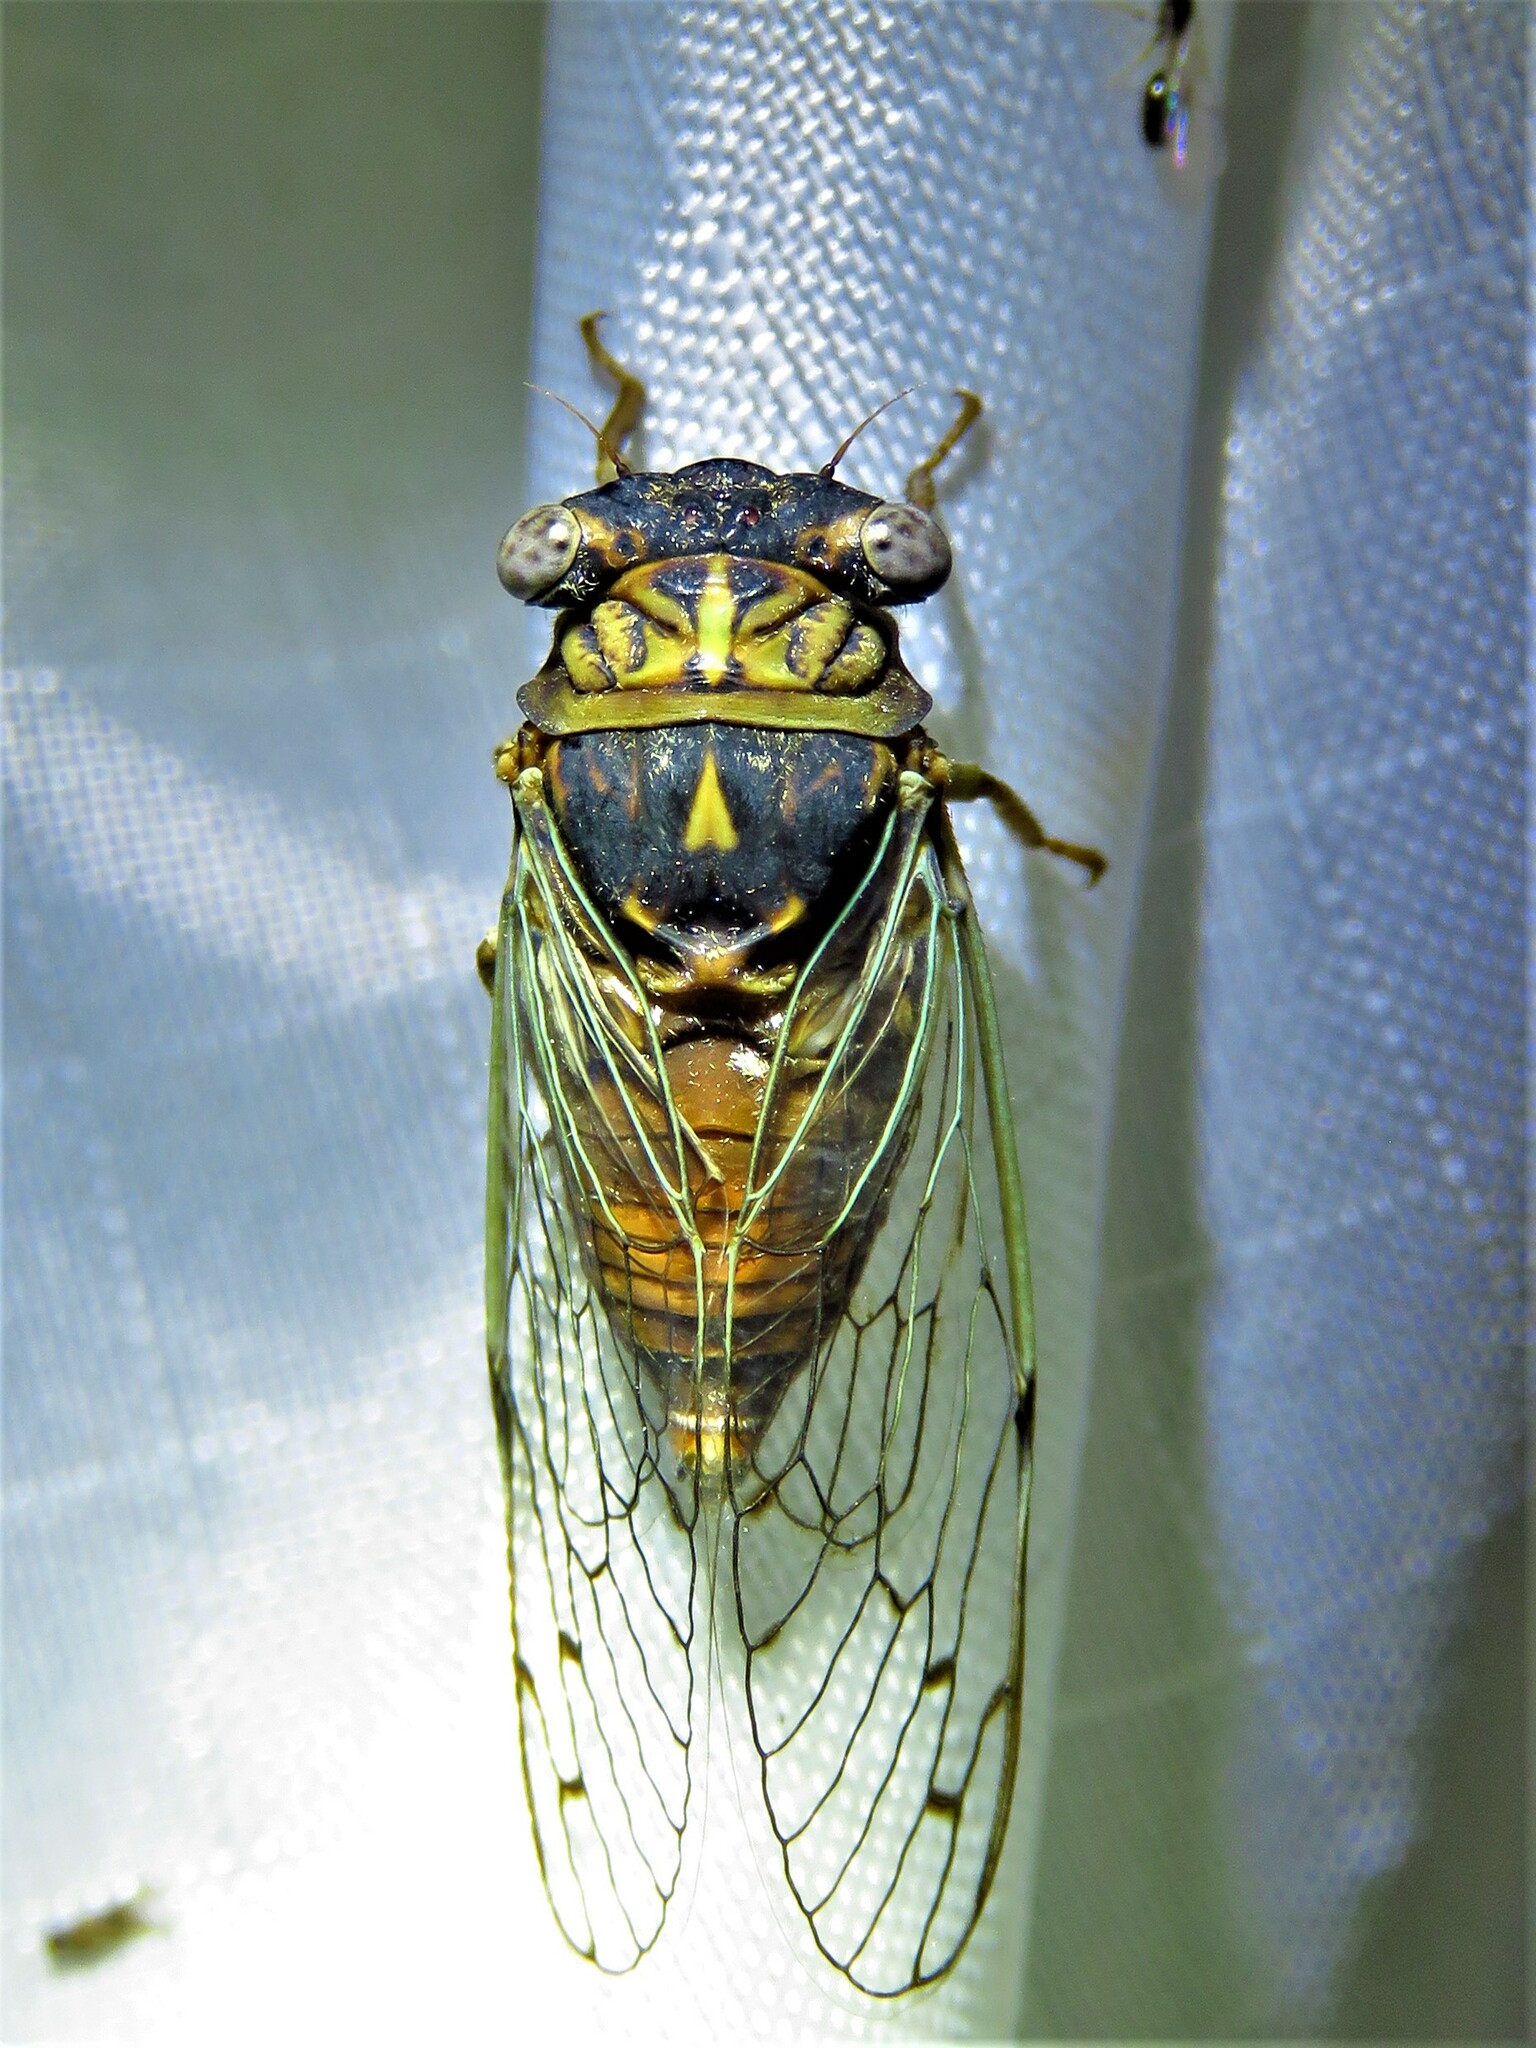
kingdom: Animalia
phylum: Arthropoda
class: Insecta
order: Hemiptera
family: Cicadidae
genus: Pacarina
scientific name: Pacarina puella
